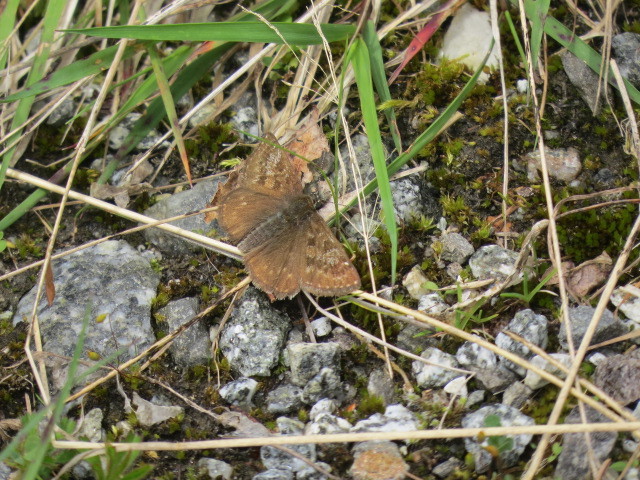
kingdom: Animalia
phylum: Arthropoda
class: Insecta
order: Lepidoptera
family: Hesperiidae
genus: Erynnis
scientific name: Erynnis tages
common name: Dingy skipper
